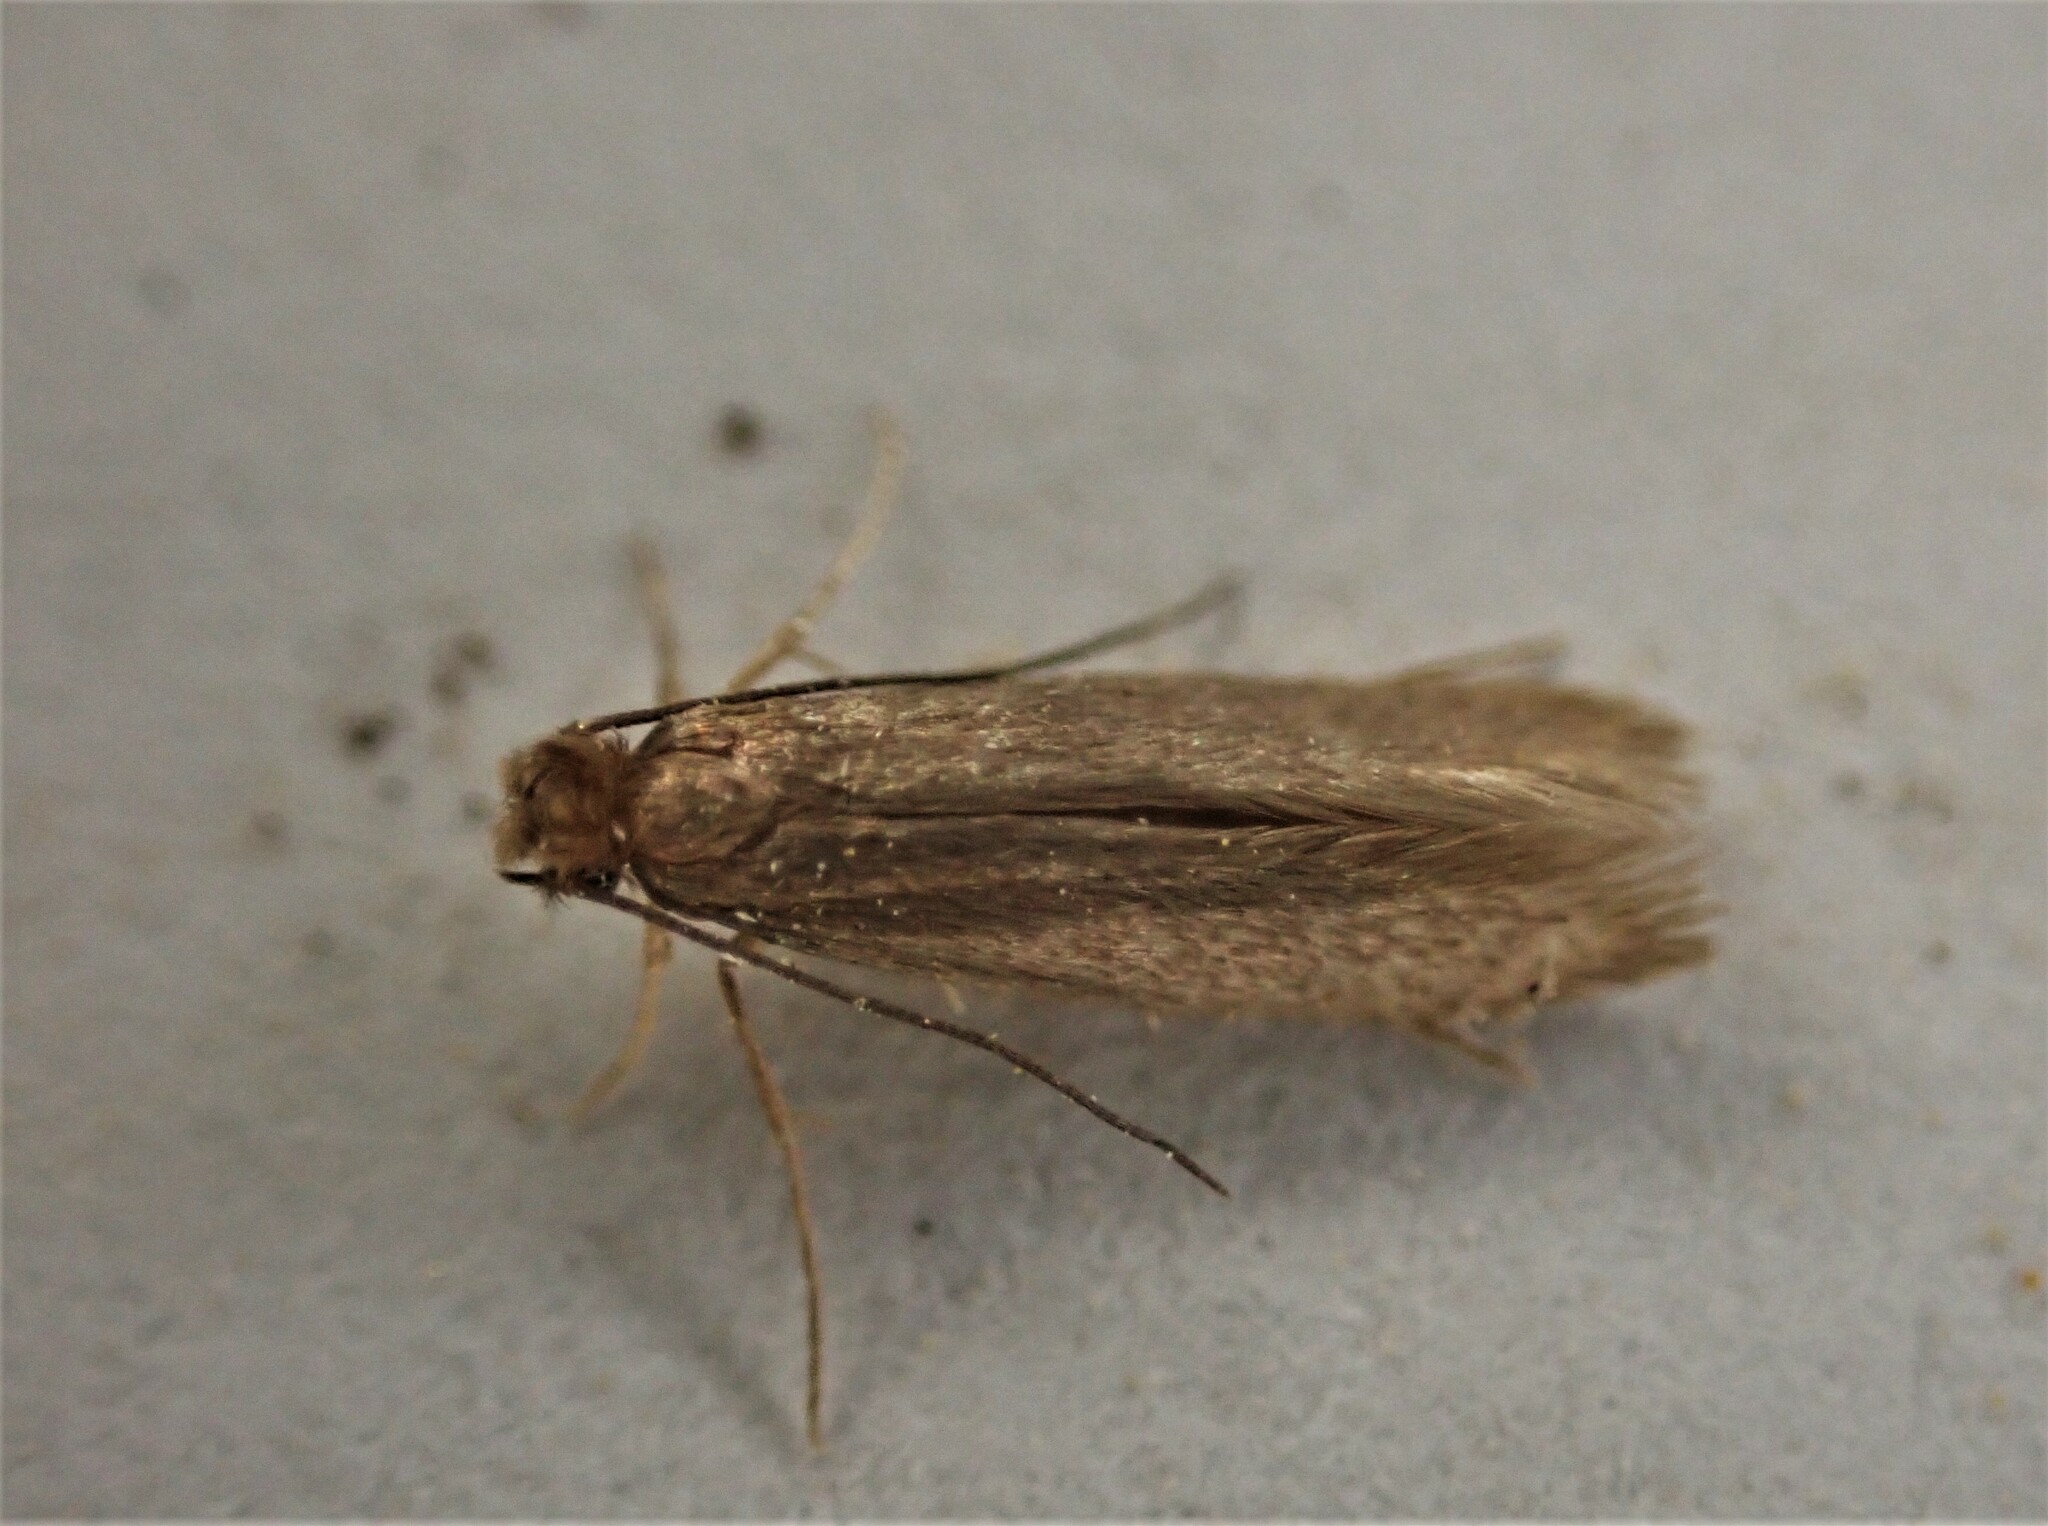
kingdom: Animalia
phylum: Arthropoda
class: Insecta
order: Lepidoptera
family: Tineidae
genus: Tineola
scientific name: Tineola bisselliella
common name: Webbing clothes moth
